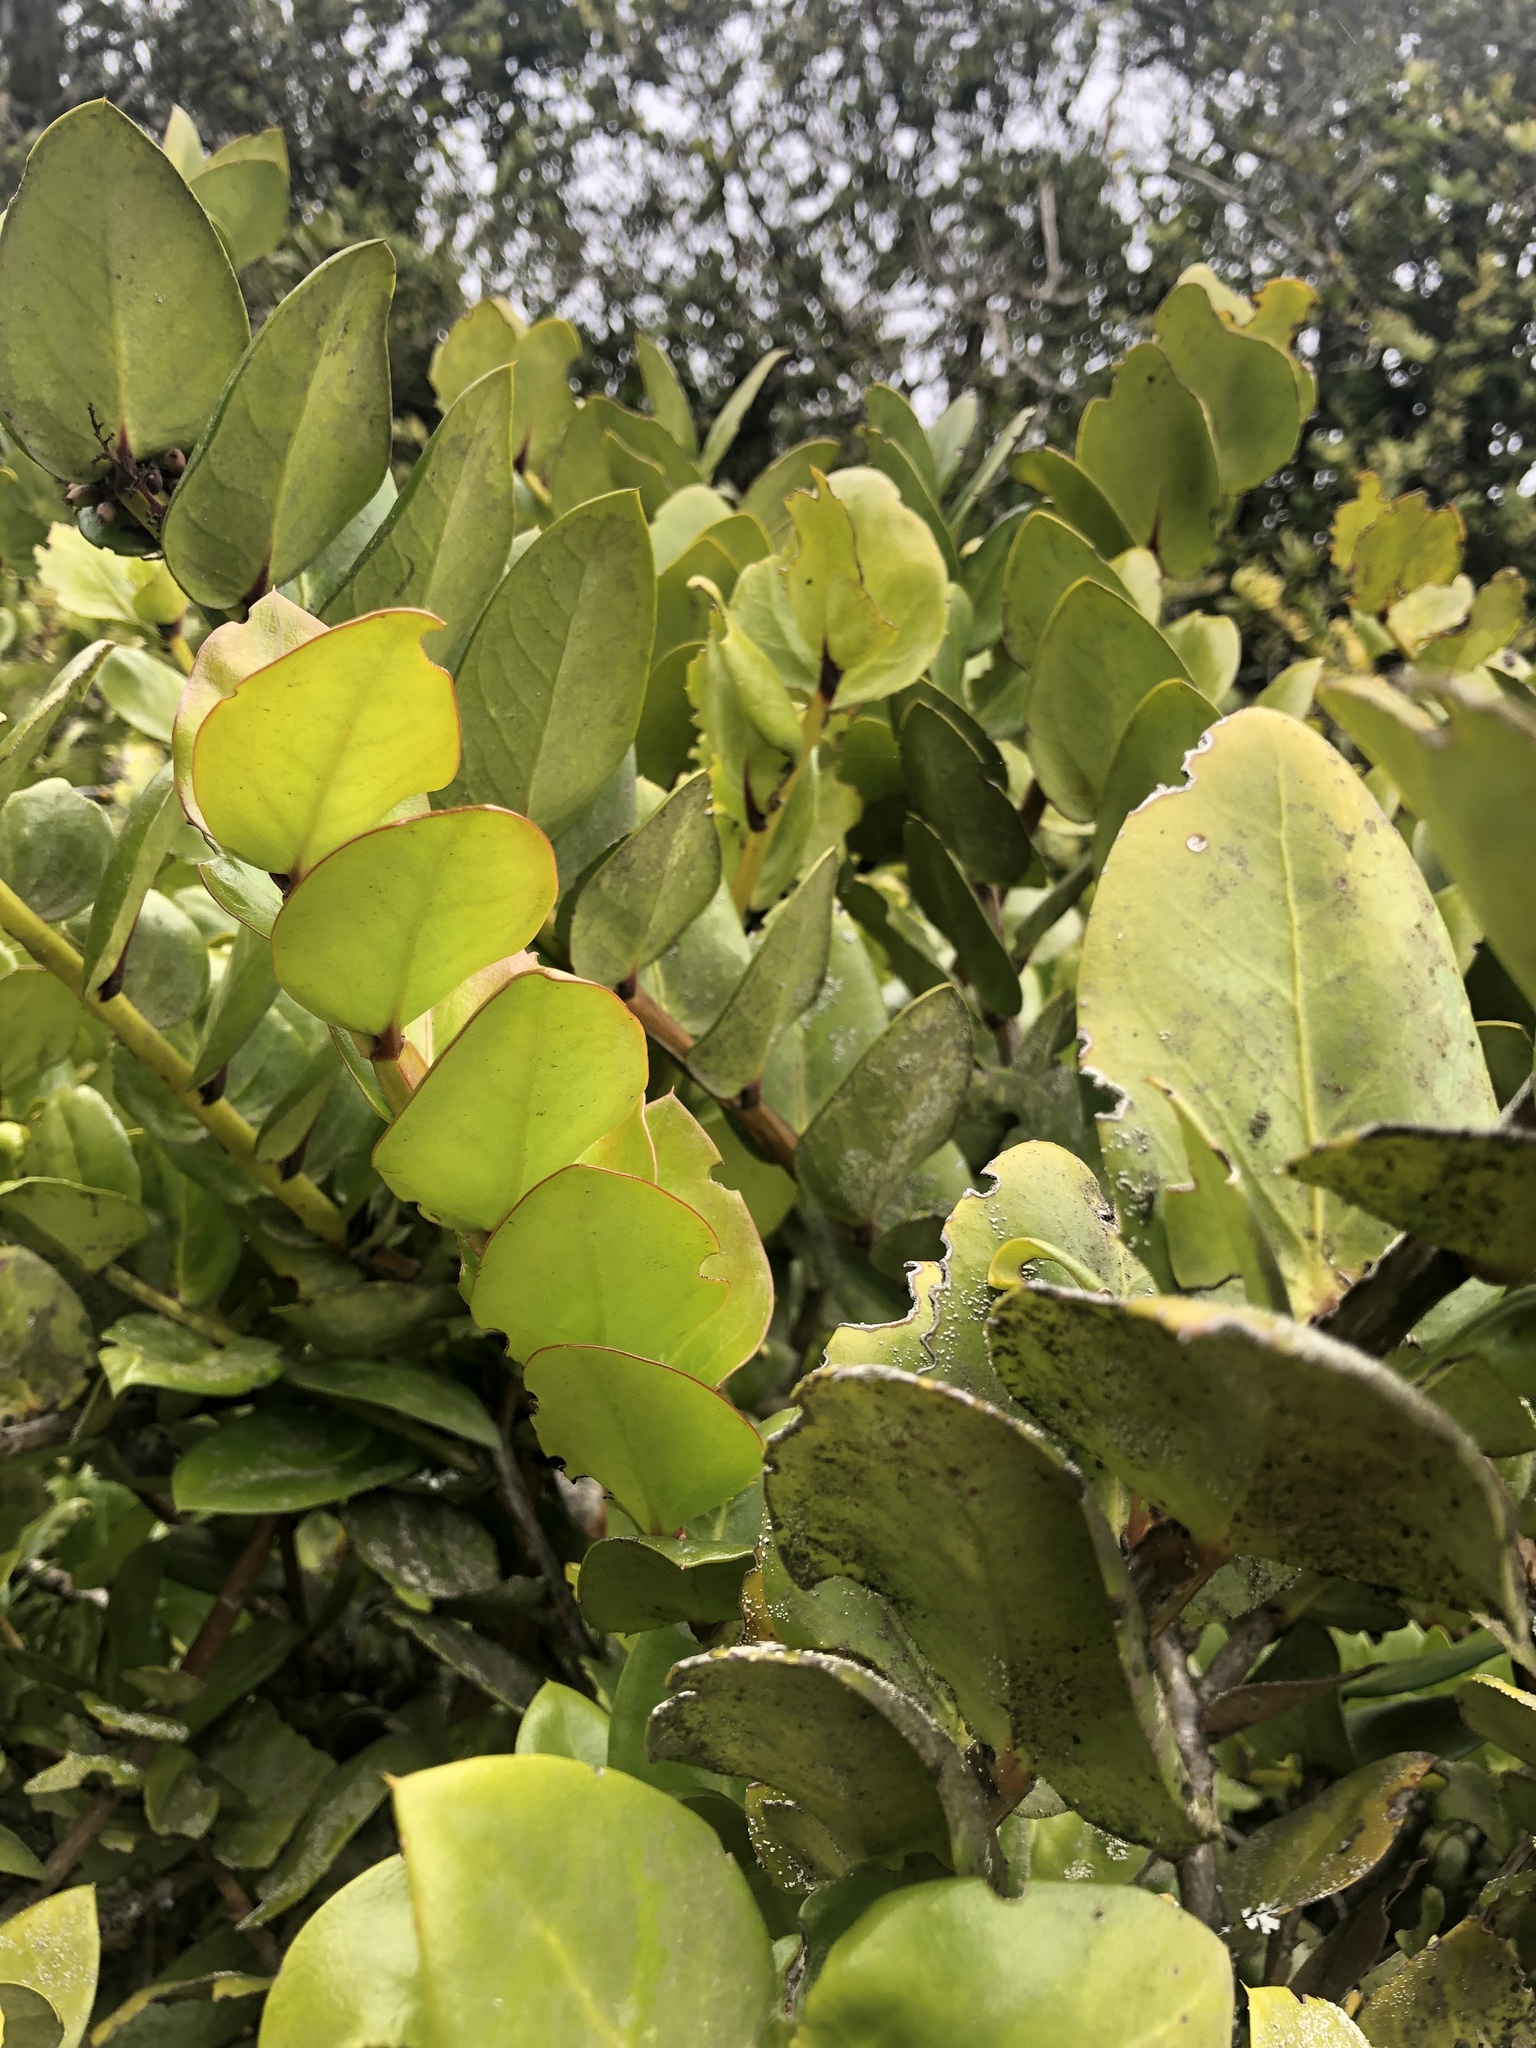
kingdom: Plantae
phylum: Tracheophyta
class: Magnoliopsida
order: Apiales
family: Griseliniaceae
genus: Griselinia
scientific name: Griselinia scandens
